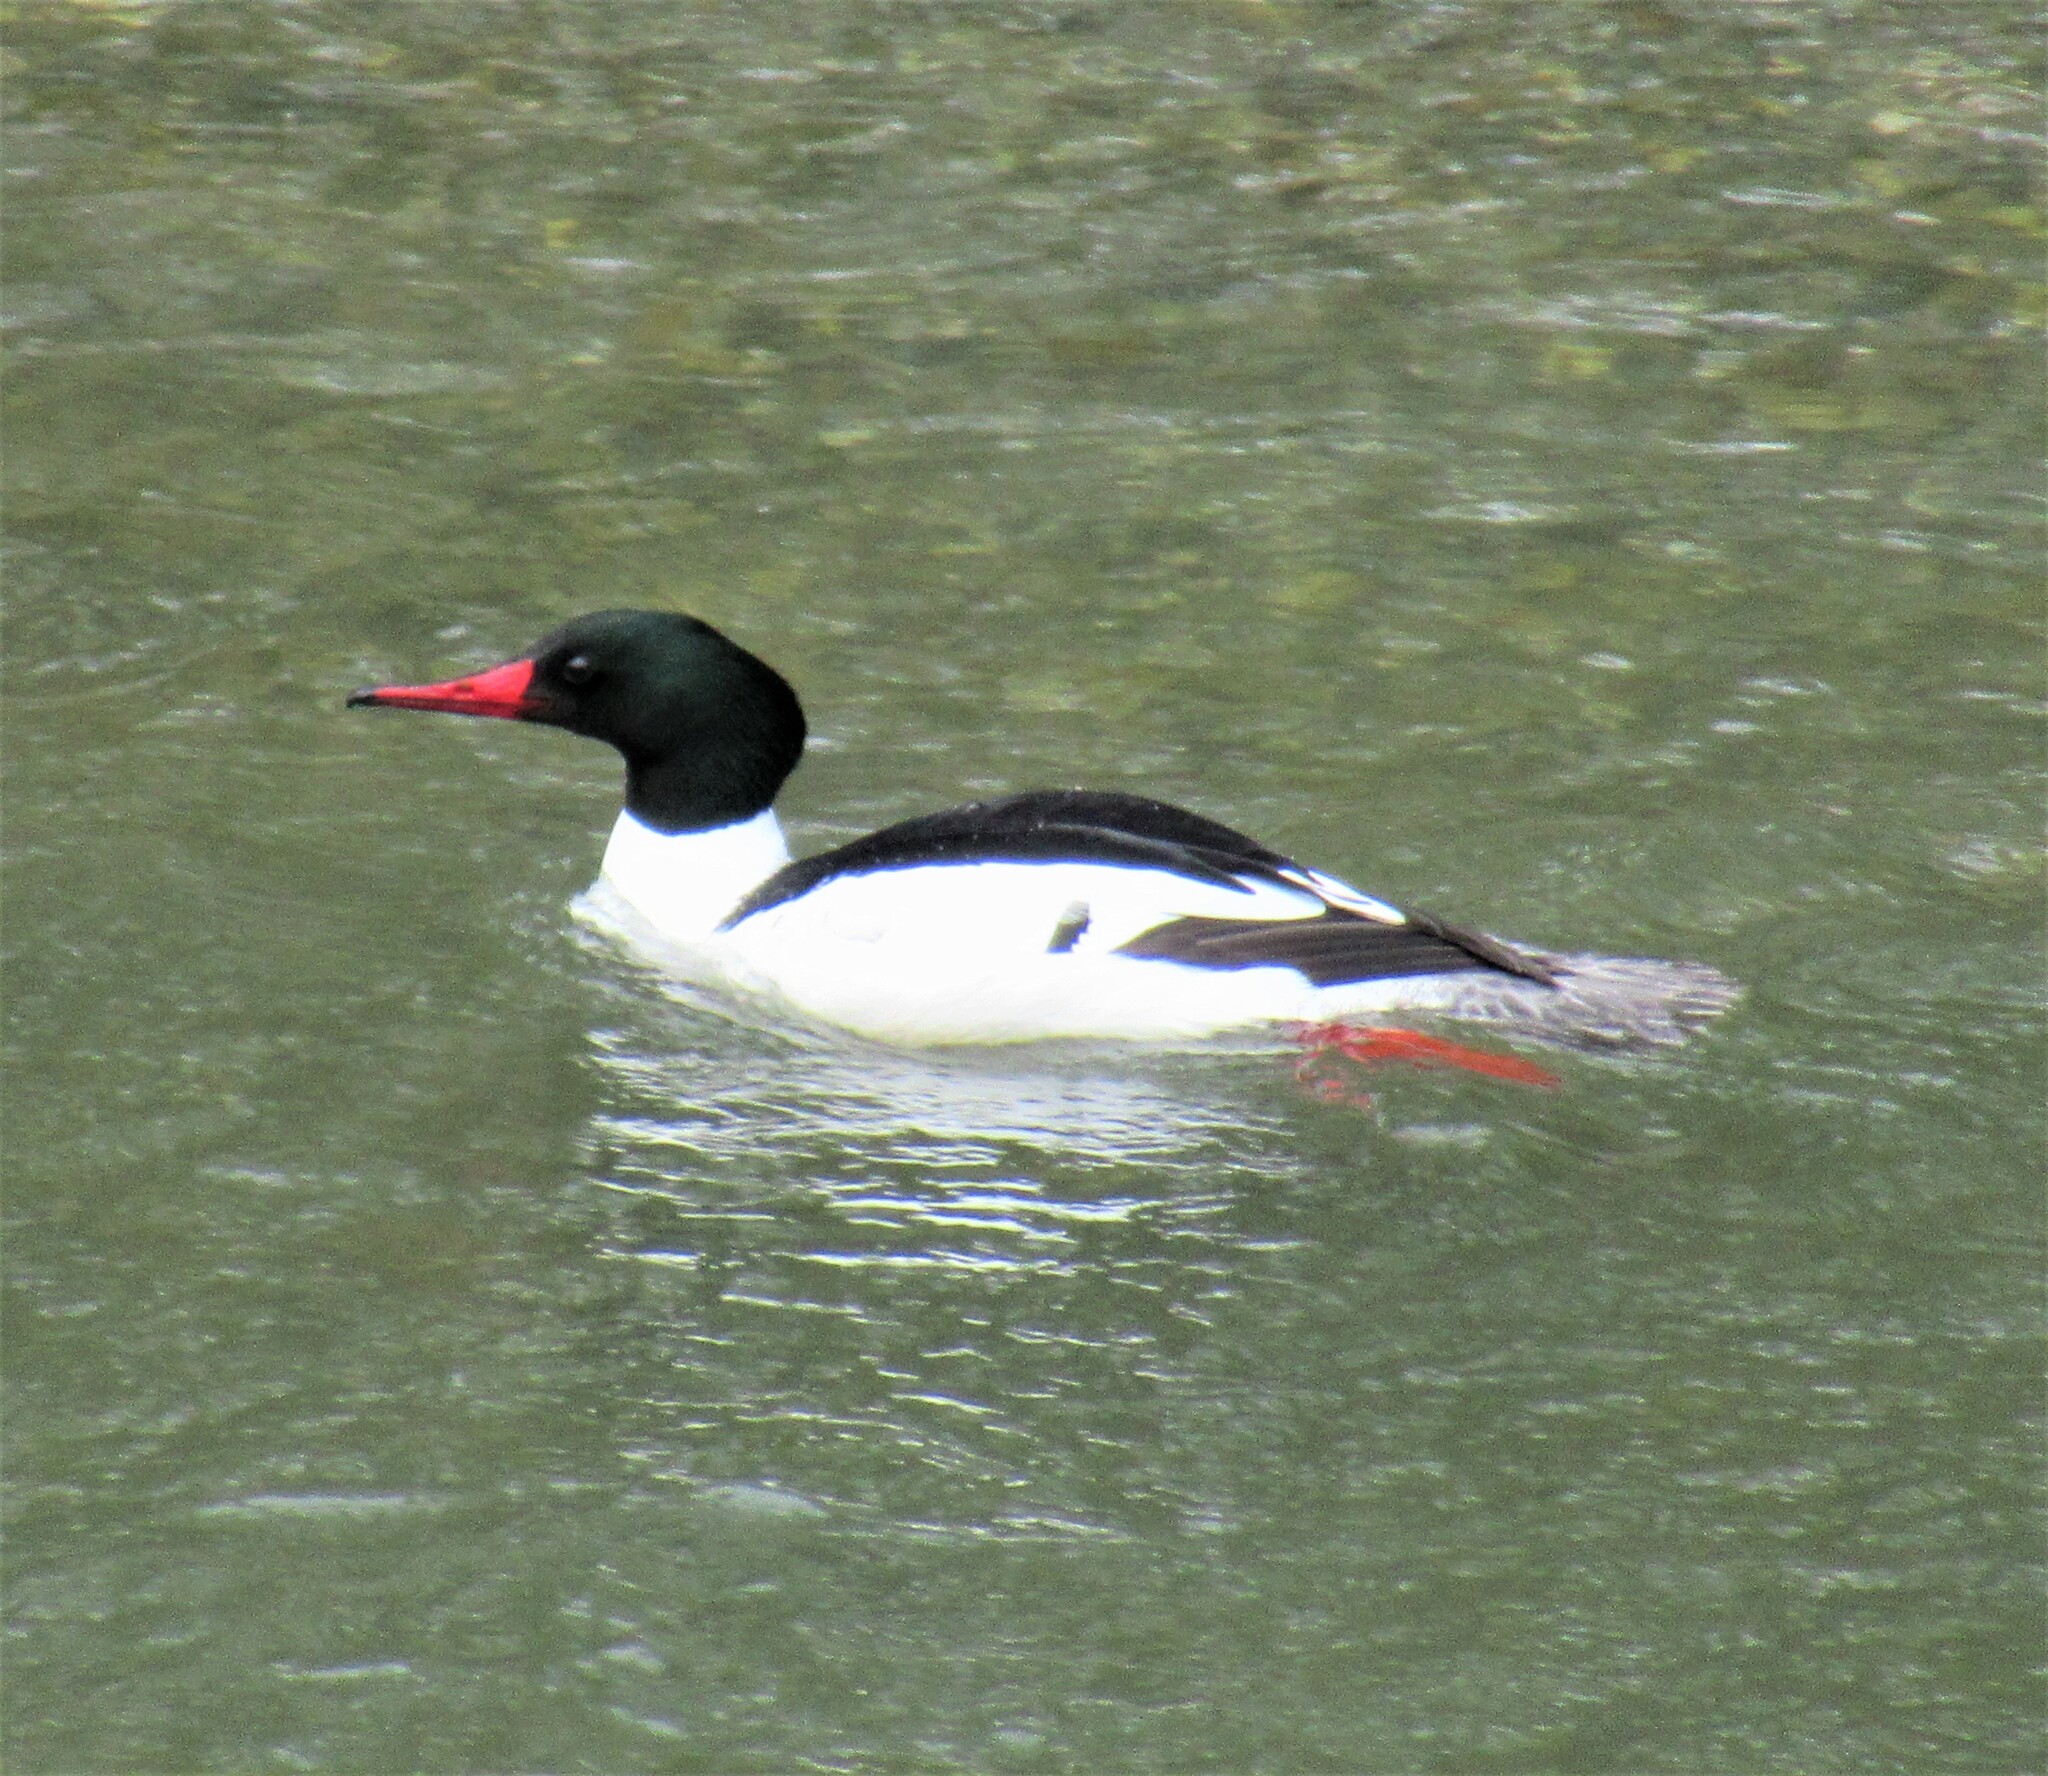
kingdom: Animalia
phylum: Chordata
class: Aves
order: Anseriformes
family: Anatidae
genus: Mergus
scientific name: Mergus merganser
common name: Common merganser
